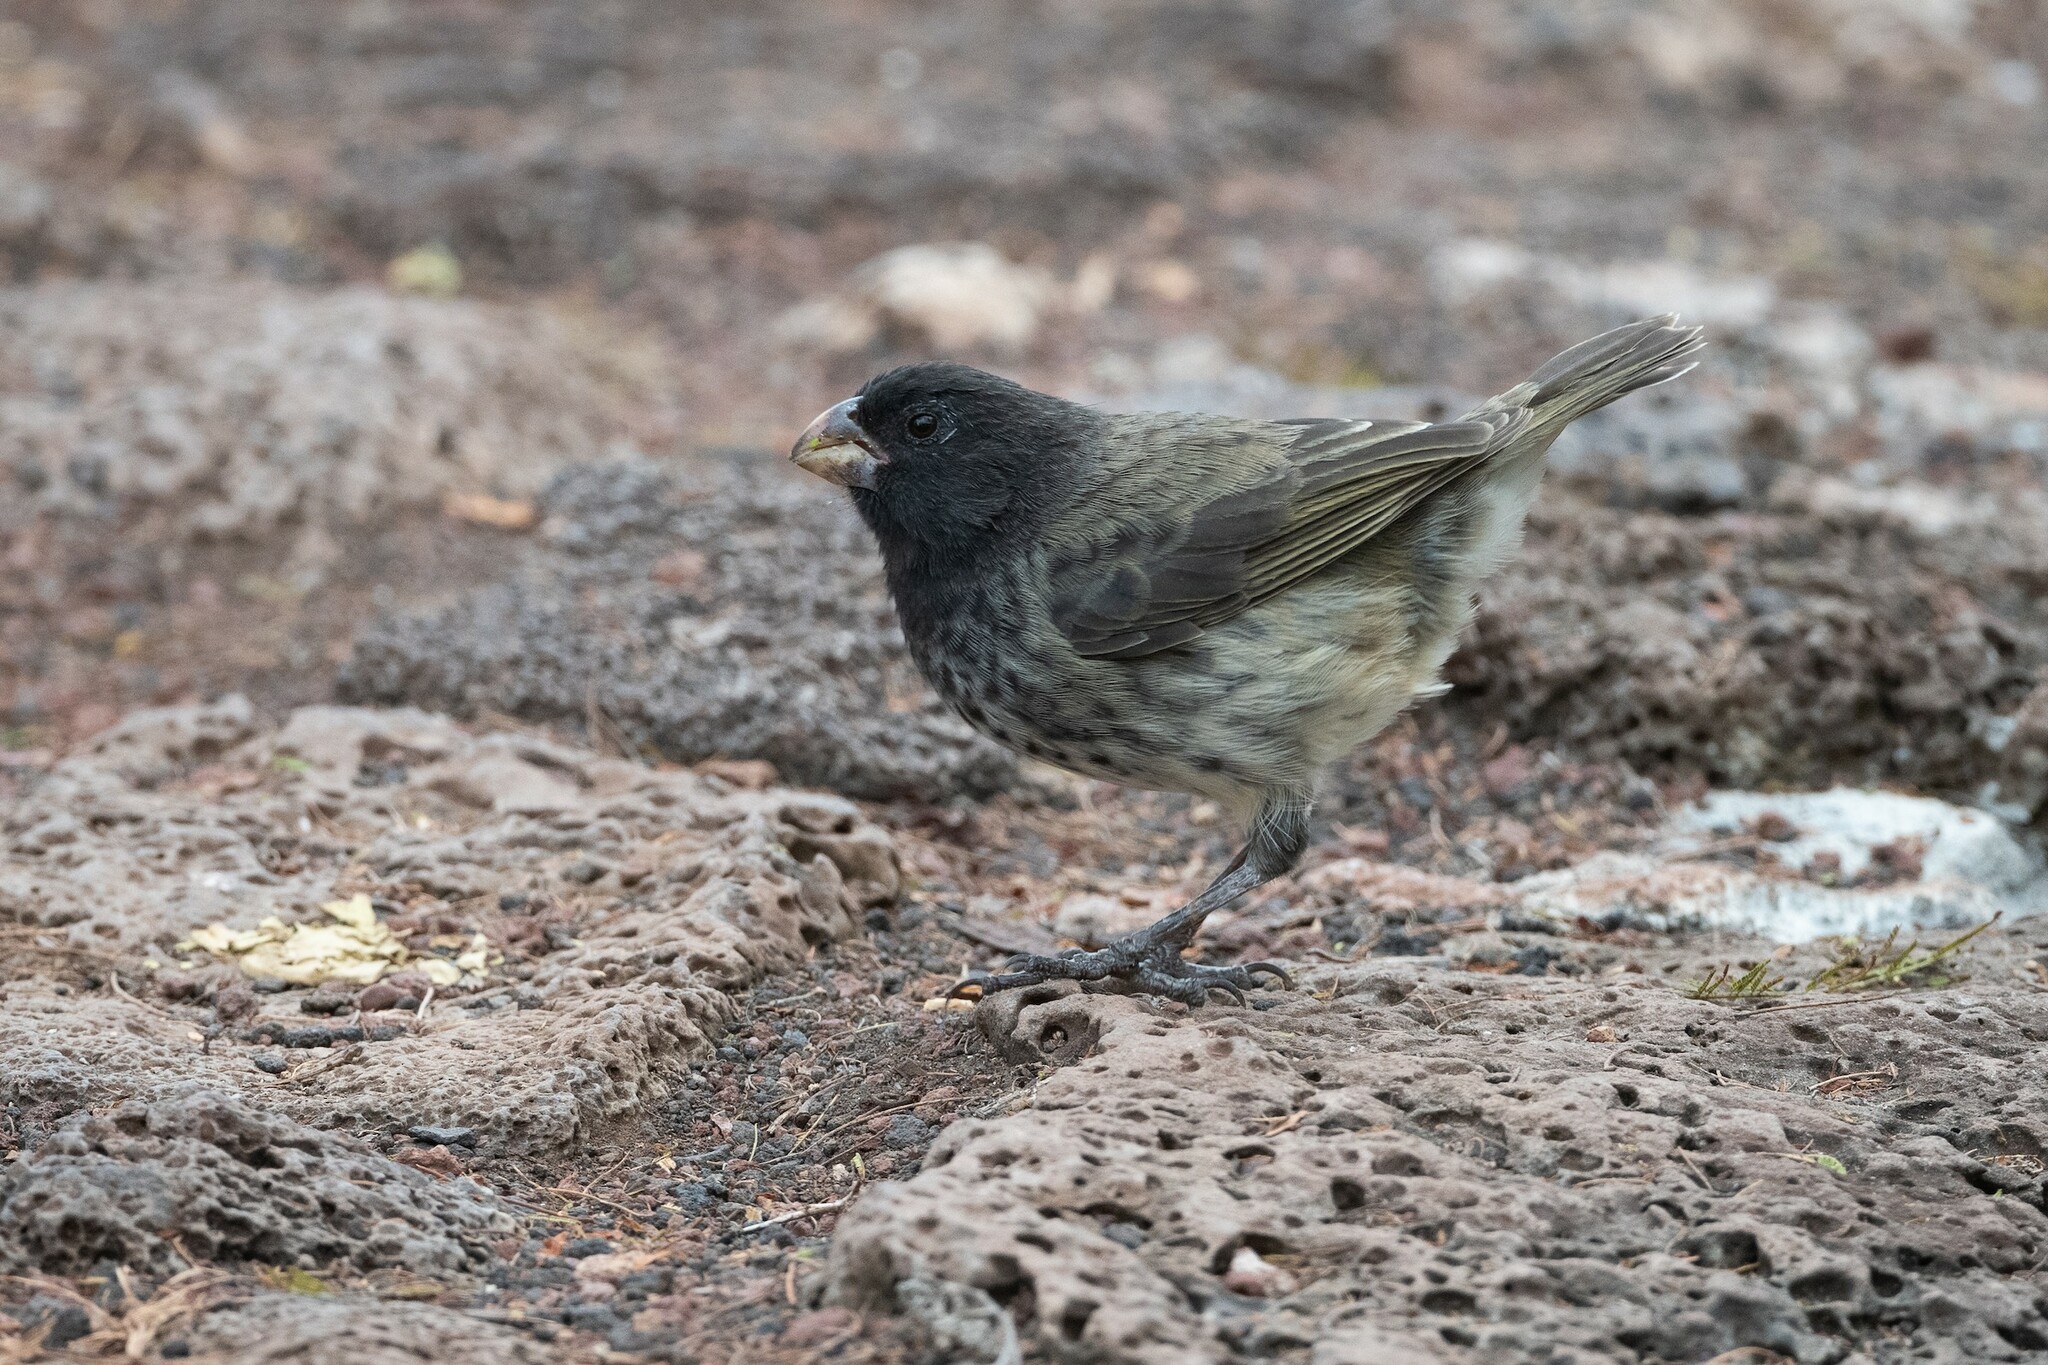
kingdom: Animalia
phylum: Chordata
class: Aves
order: Passeriformes
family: Thraupidae
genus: Platyspiza
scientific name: Platyspiza crassirostris
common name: Vegetarian finch
